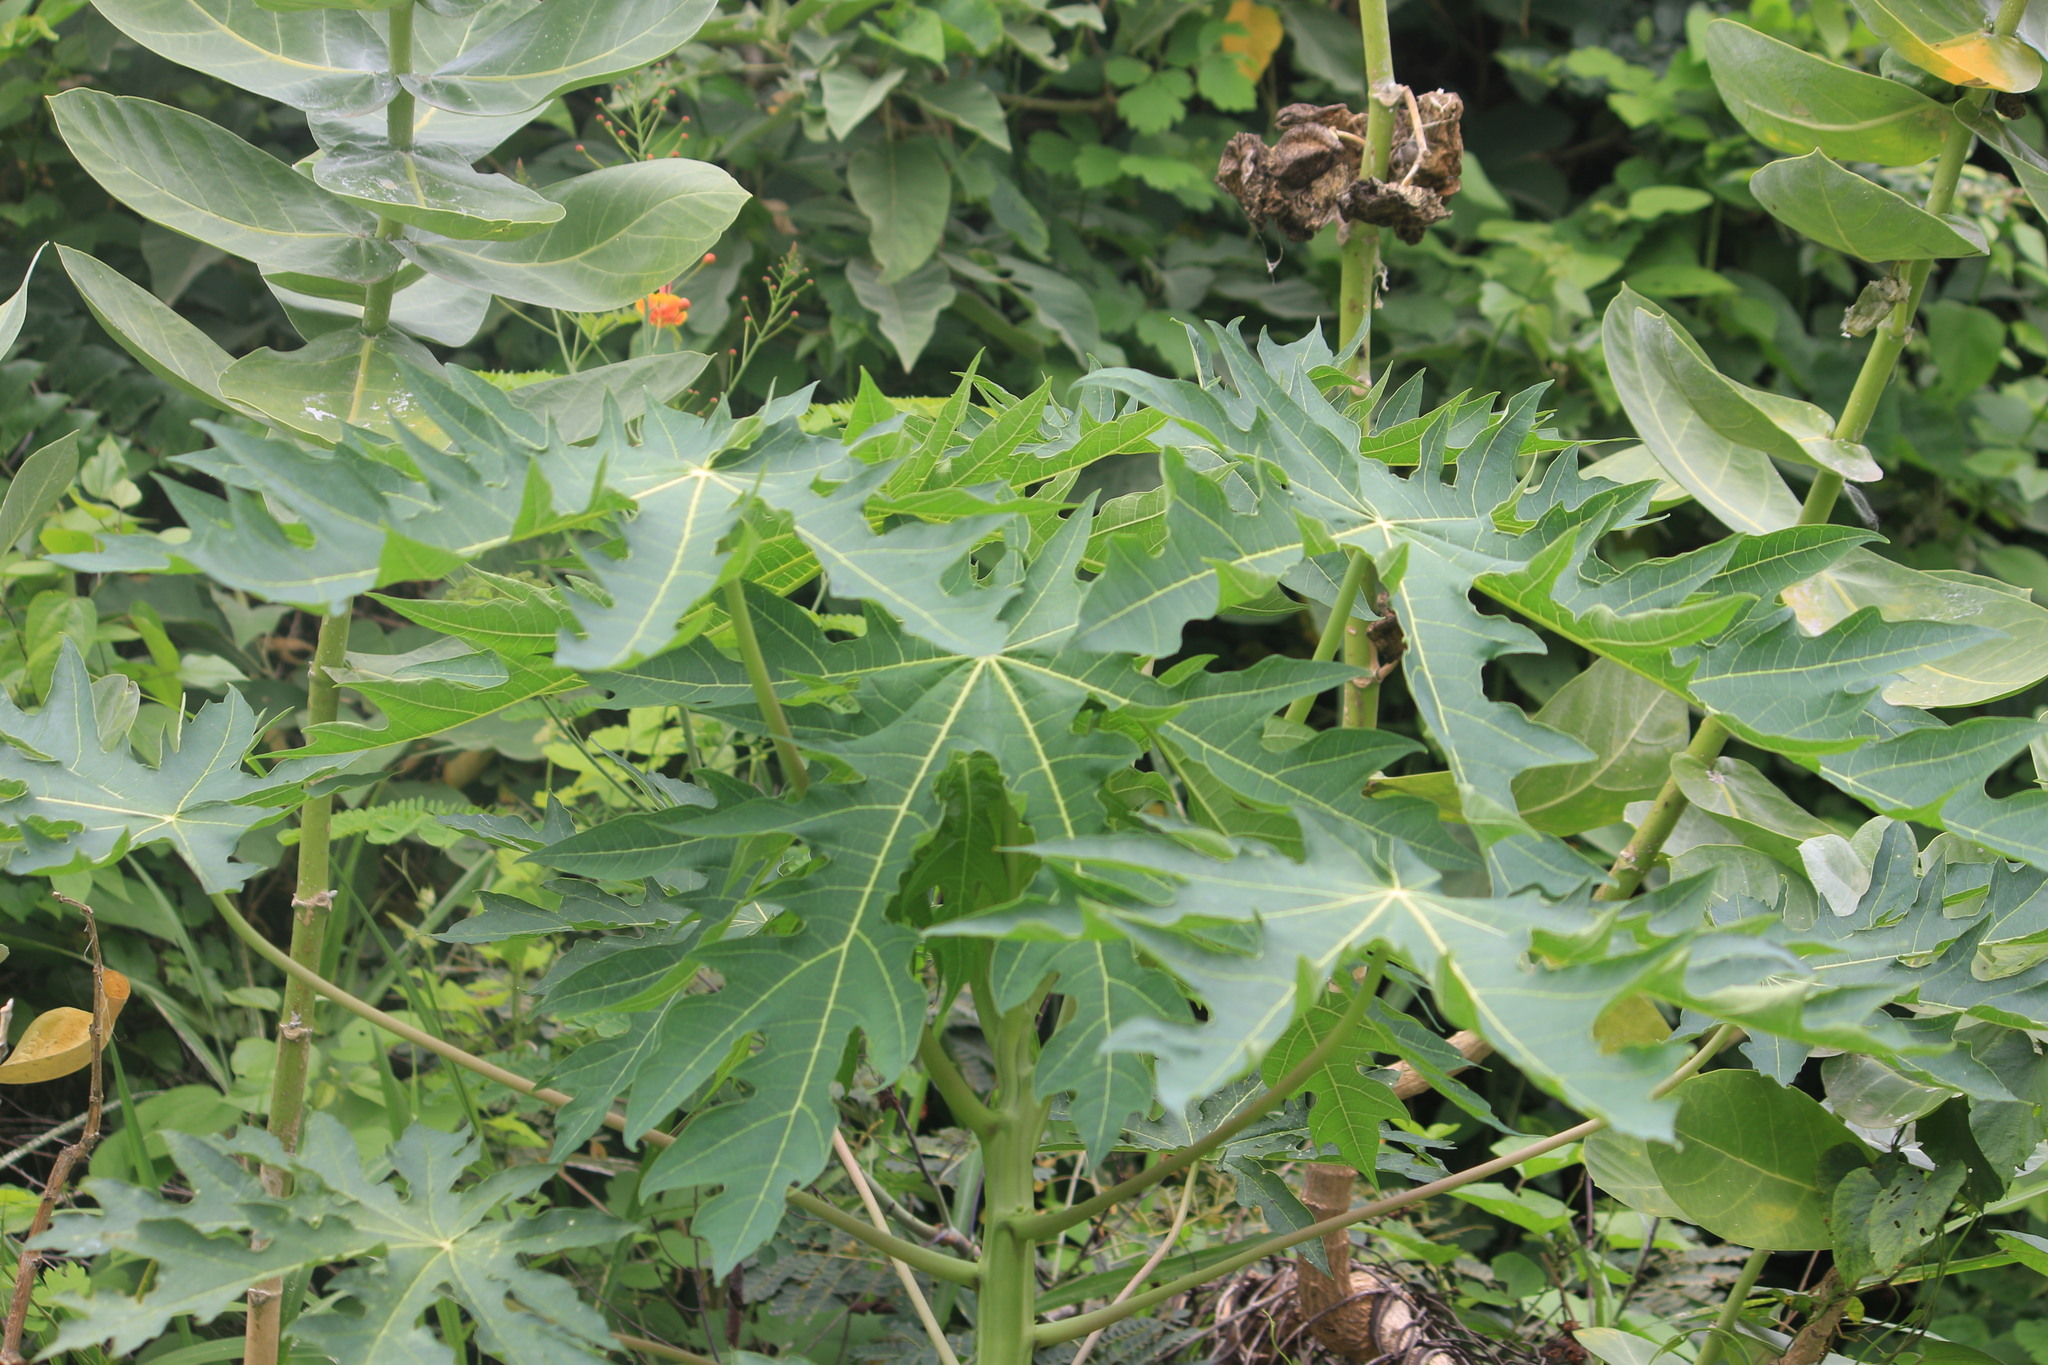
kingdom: Plantae
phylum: Tracheophyta
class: Magnoliopsida
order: Brassicales
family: Caricaceae
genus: Carica
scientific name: Carica papaya
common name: Papaya
